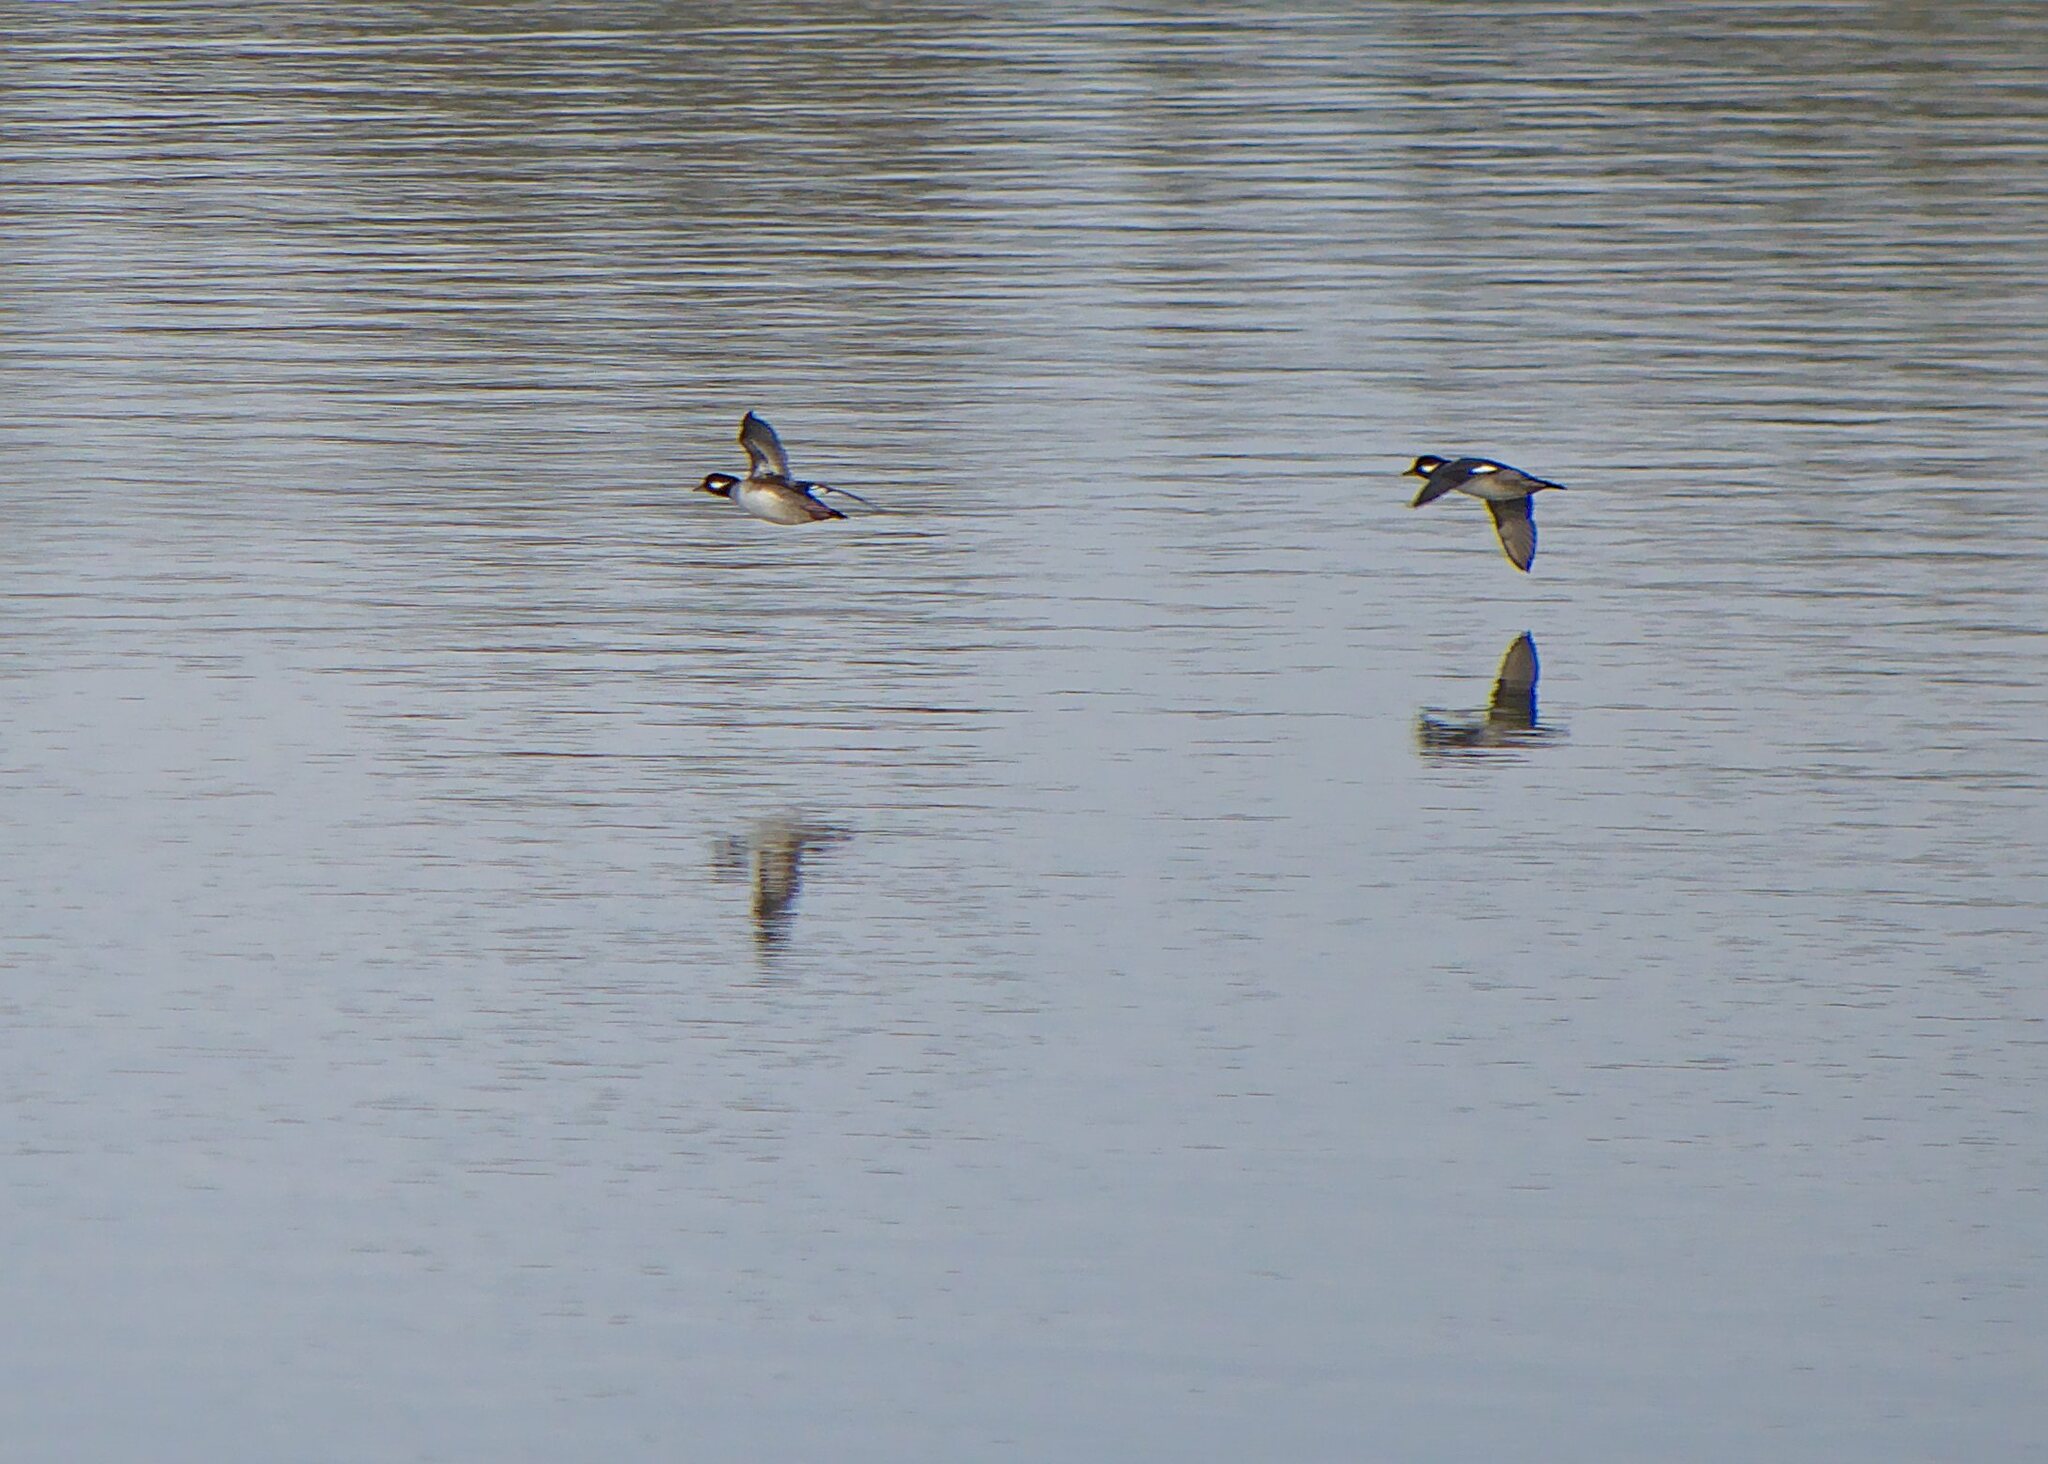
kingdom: Animalia
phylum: Chordata
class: Aves
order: Anseriformes
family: Anatidae
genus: Bucephala
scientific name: Bucephala albeola
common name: Bufflehead
